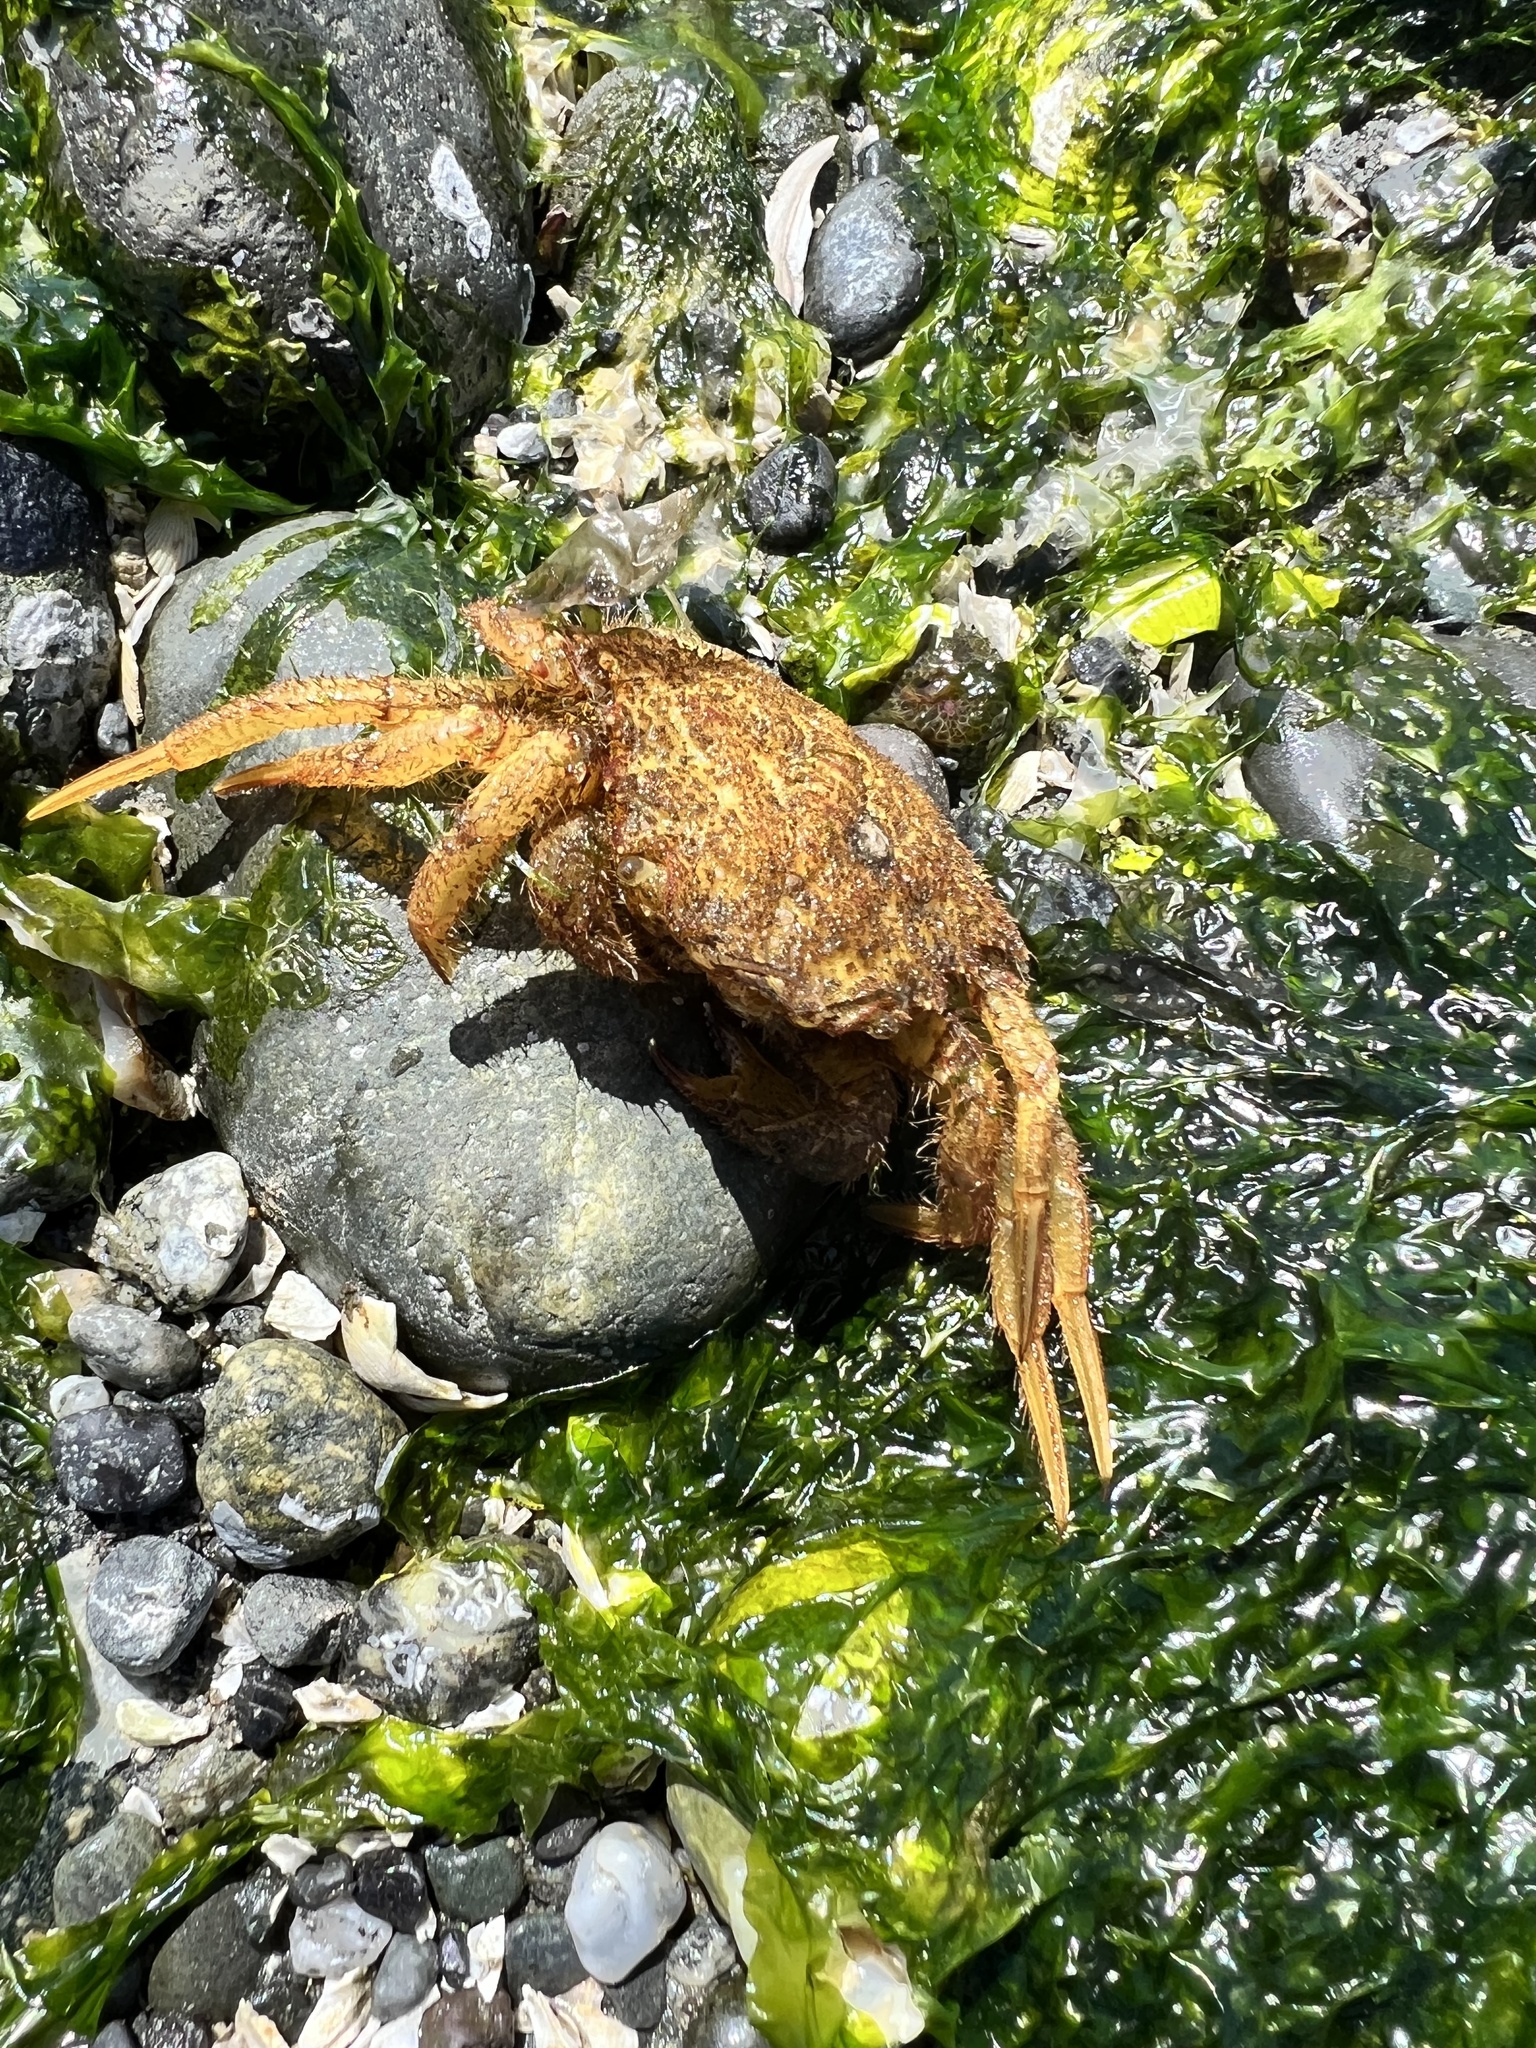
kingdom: Animalia
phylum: Arthropoda
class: Malacostraca
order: Decapoda
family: Cheiragonidae
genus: Telmessus
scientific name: Telmessus cheiragonus
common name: Helmet crab
